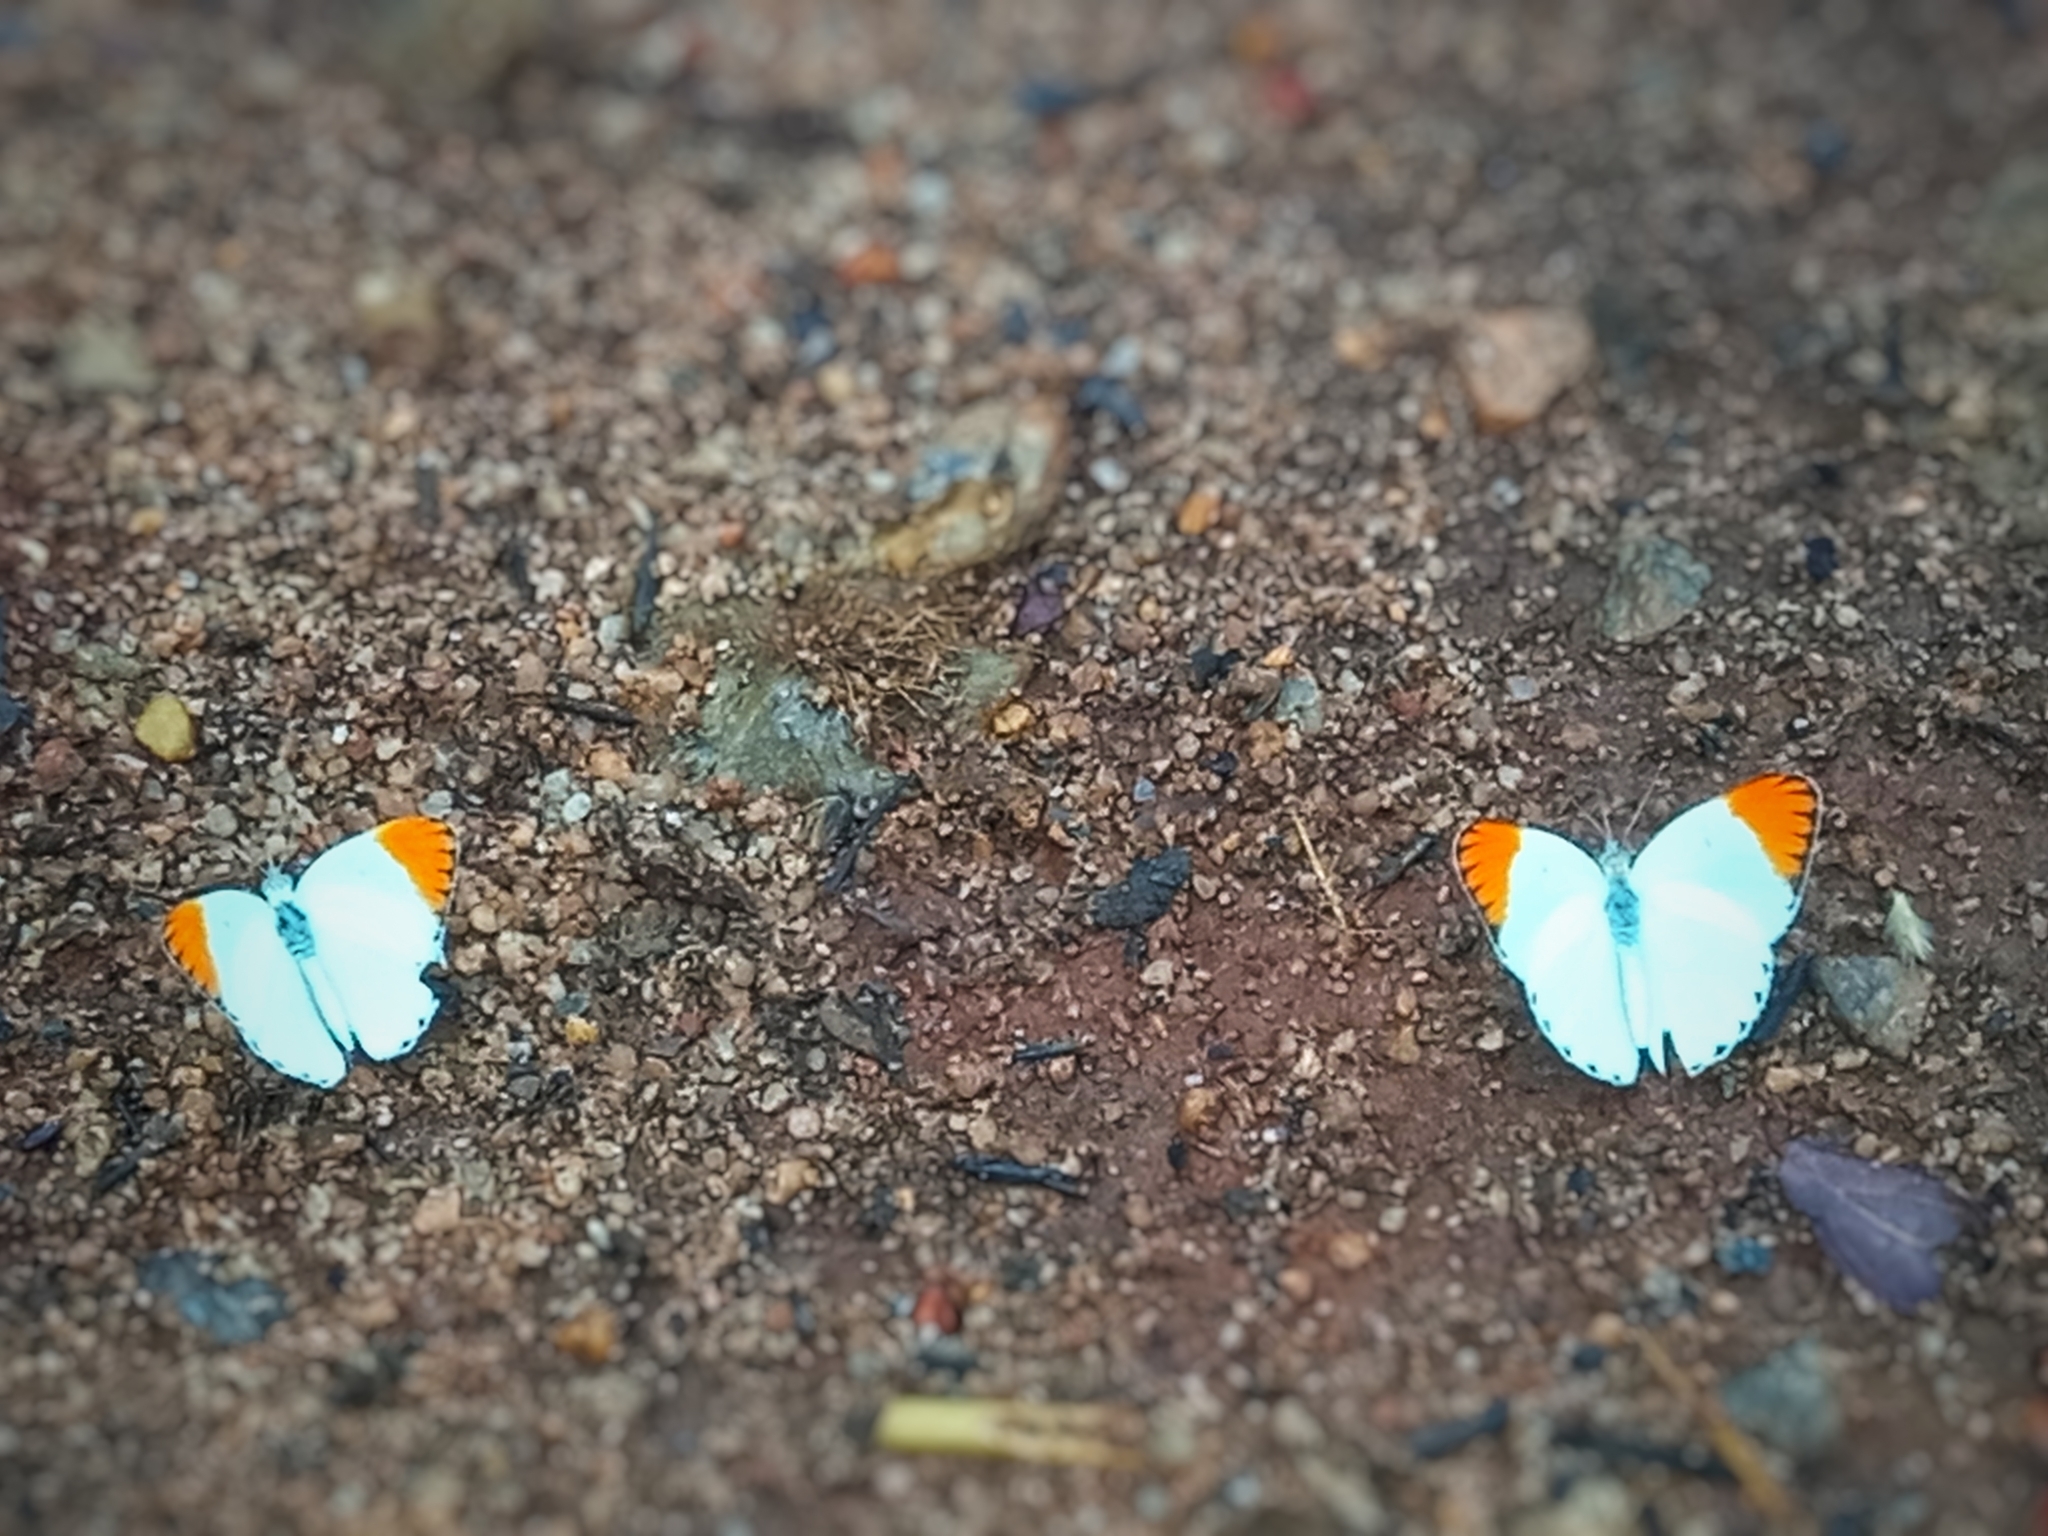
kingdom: Animalia
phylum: Arthropoda
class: Insecta
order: Lepidoptera
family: Pieridae
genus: Colotis
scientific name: Colotis antevippe
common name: Large orange tip
